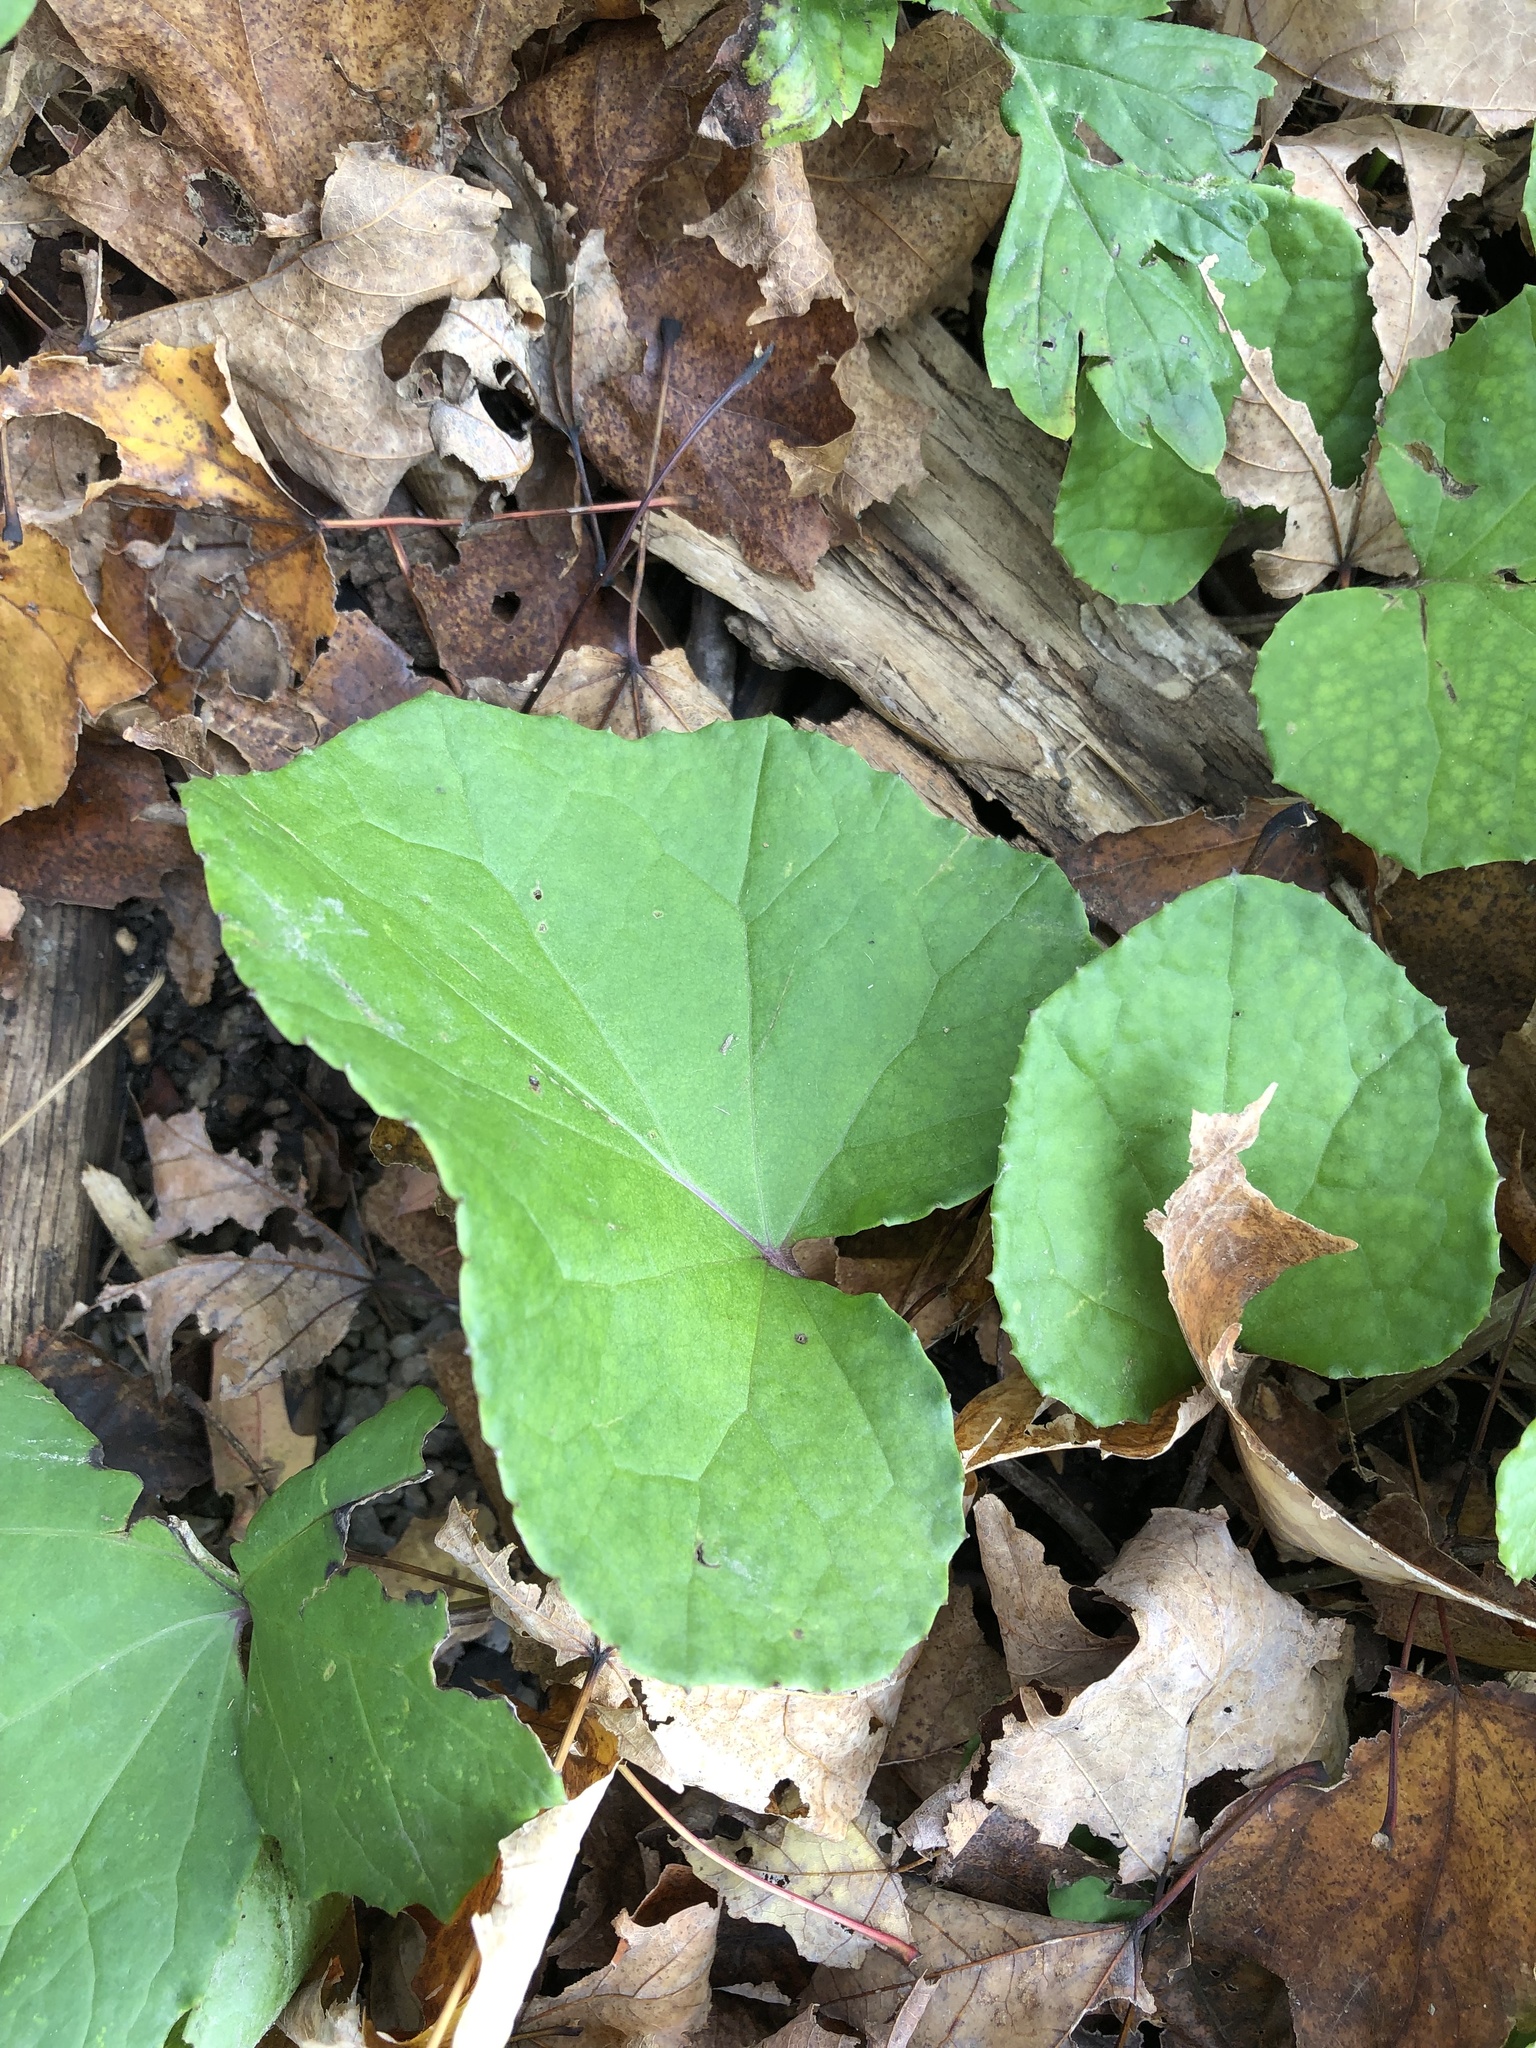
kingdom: Plantae
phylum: Tracheophyta
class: Magnoliopsida
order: Asterales
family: Asteraceae
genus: Tussilago
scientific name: Tussilago farfara
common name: Coltsfoot
